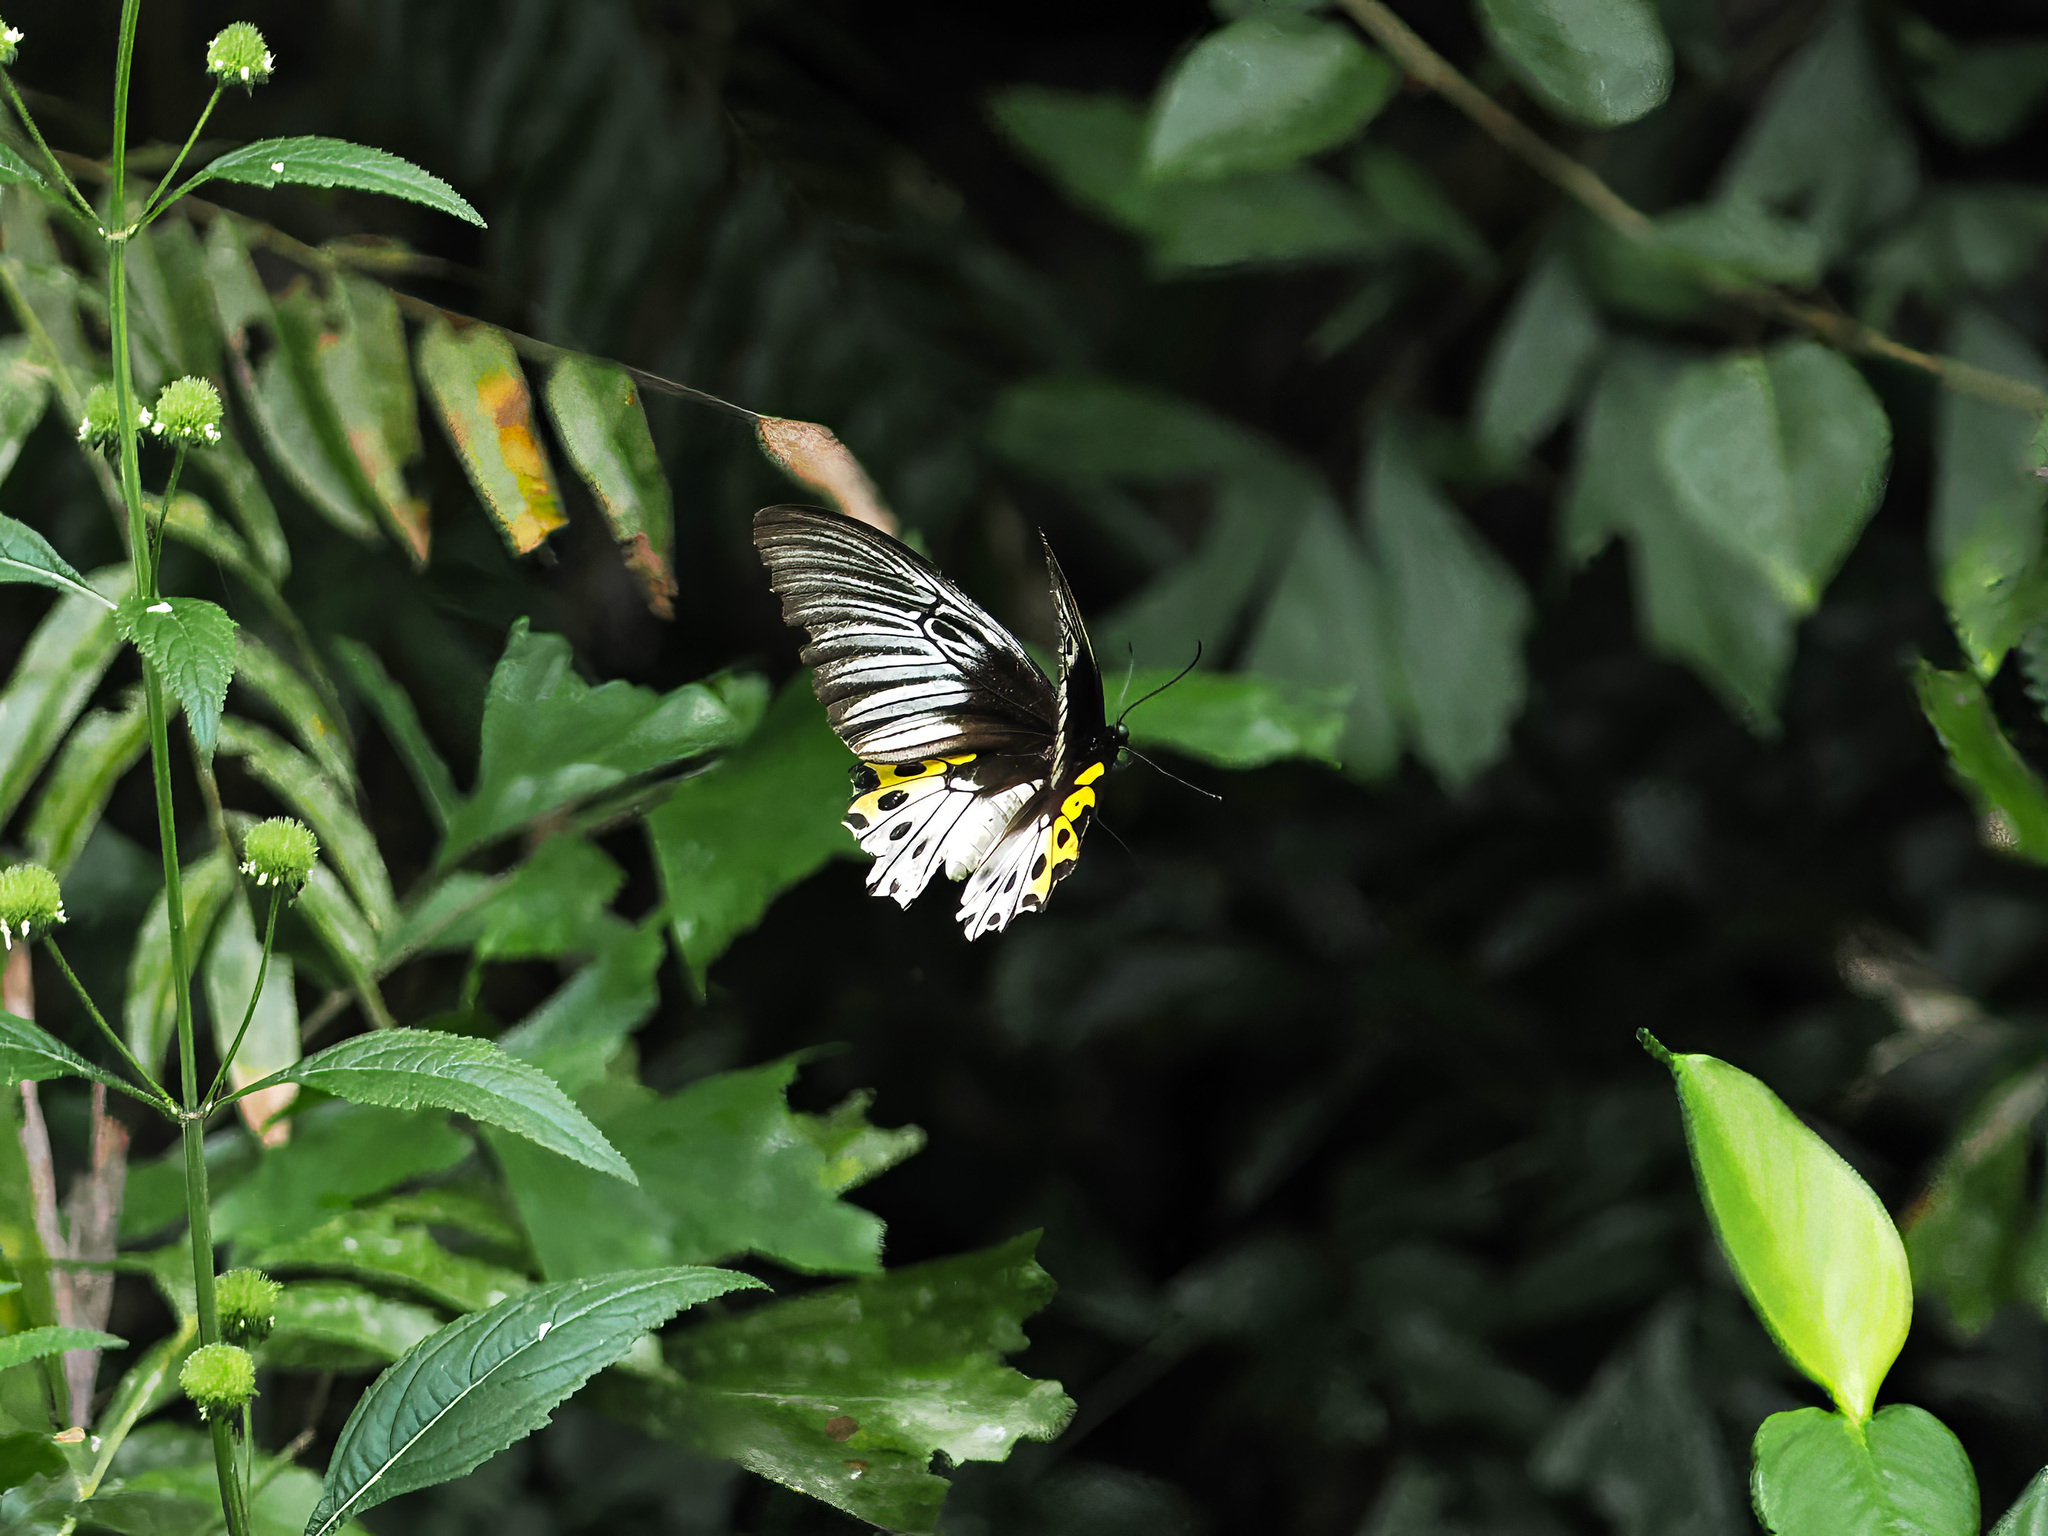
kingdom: Animalia
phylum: Arthropoda
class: Insecta
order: Lepidoptera
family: Papilionidae
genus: Troides
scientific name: Troides hypolitus
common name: Rippon’s birdwing
